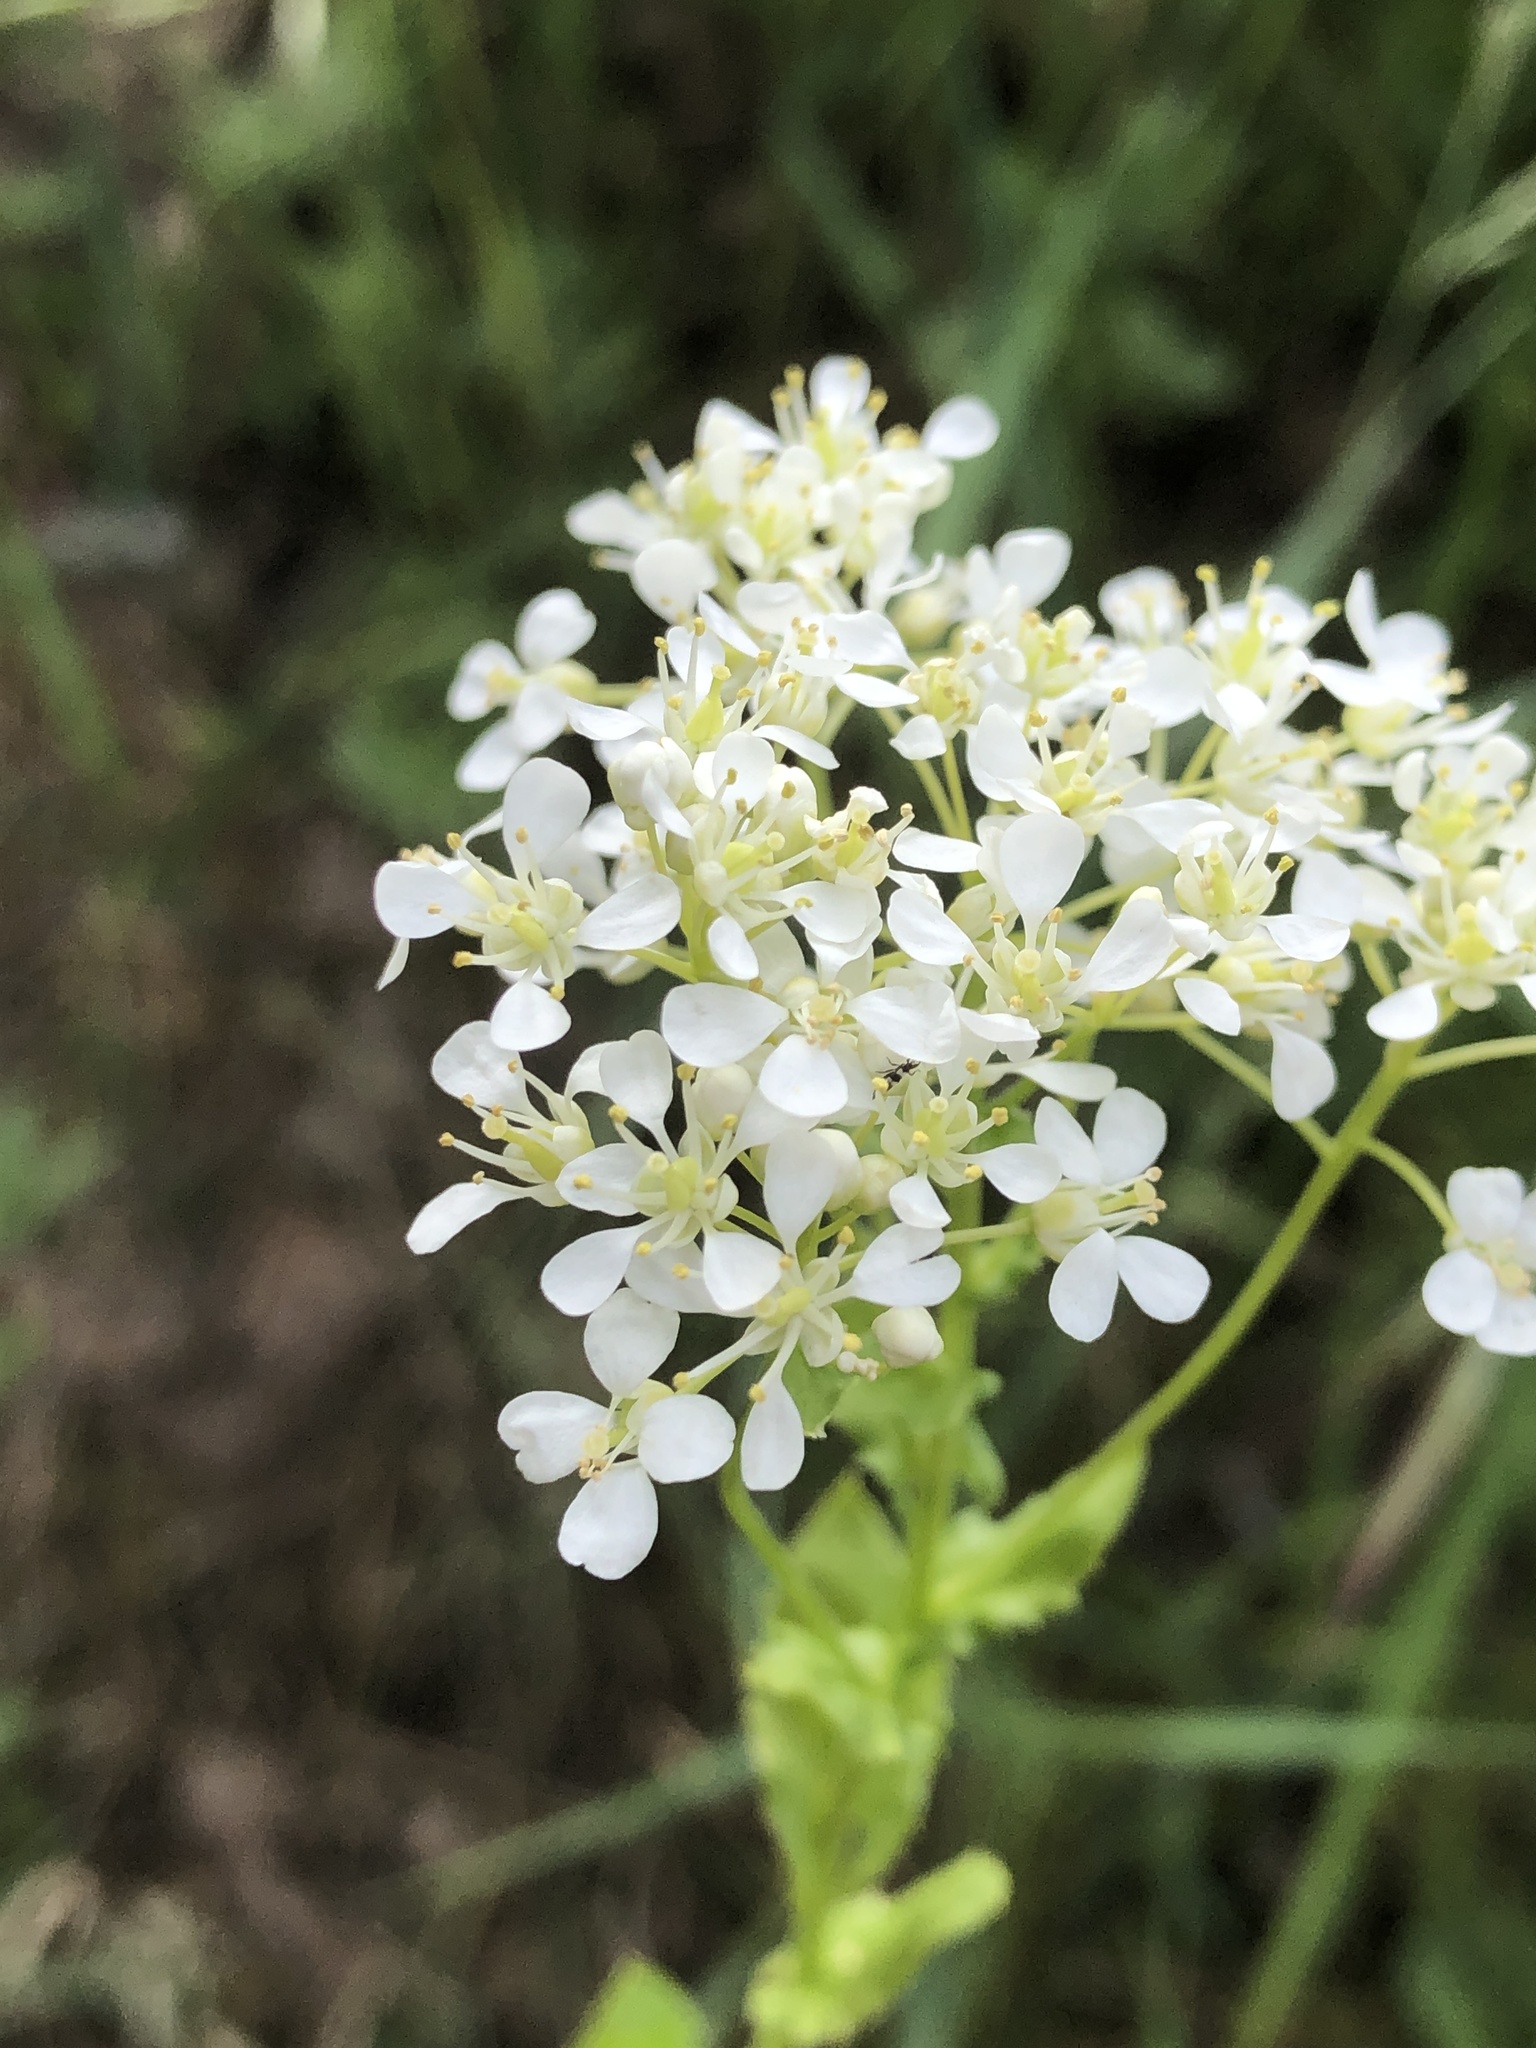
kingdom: Plantae
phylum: Tracheophyta
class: Magnoliopsida
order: Brassicales
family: Brassicaceae
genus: Lepidium
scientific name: Lepidium draba
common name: Hoary cress
